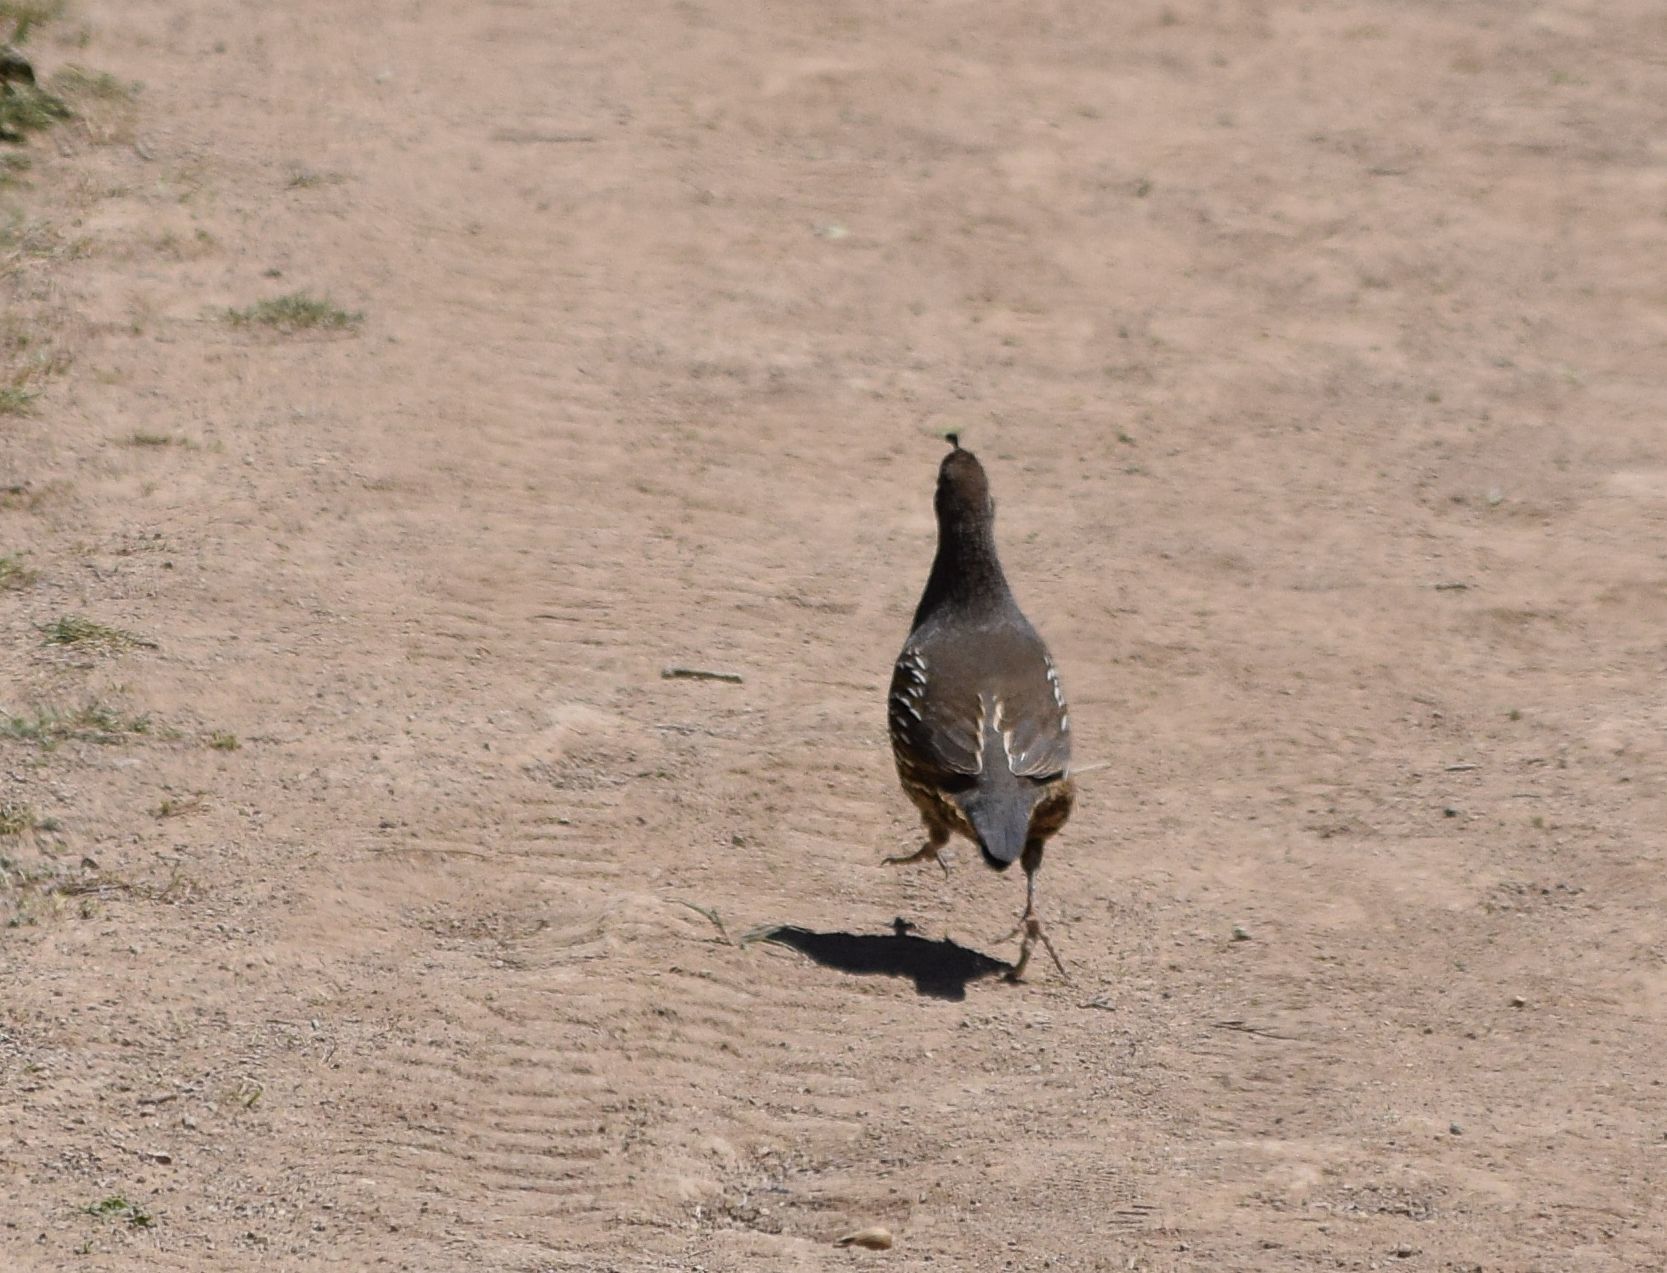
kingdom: Animalia
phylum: Chordata
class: Aves
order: Galliformes
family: Odontophoridae
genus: Callipepla
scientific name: Callipepla californica
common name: California quail
